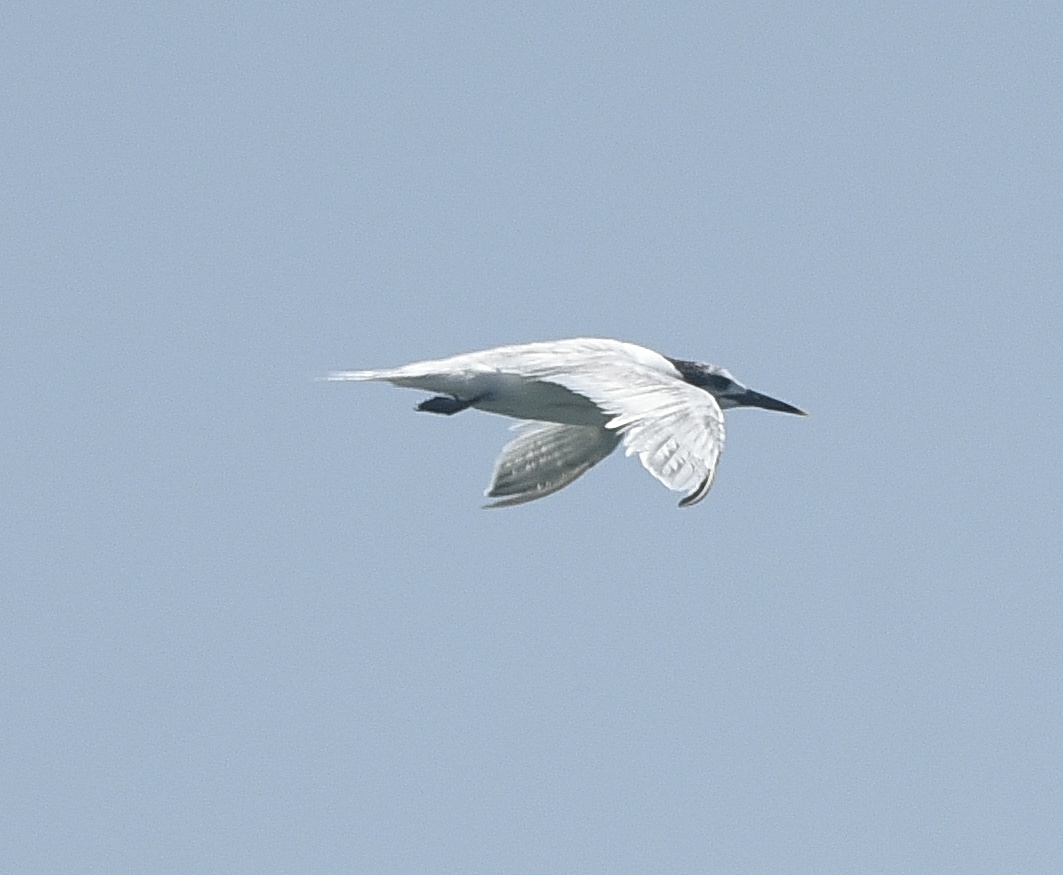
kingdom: Animalia
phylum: Chordata
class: Aves
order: Charadriiformes
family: Laridae
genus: Thalasseus
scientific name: Thalasseus sandvicensis
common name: Sandwich tern
